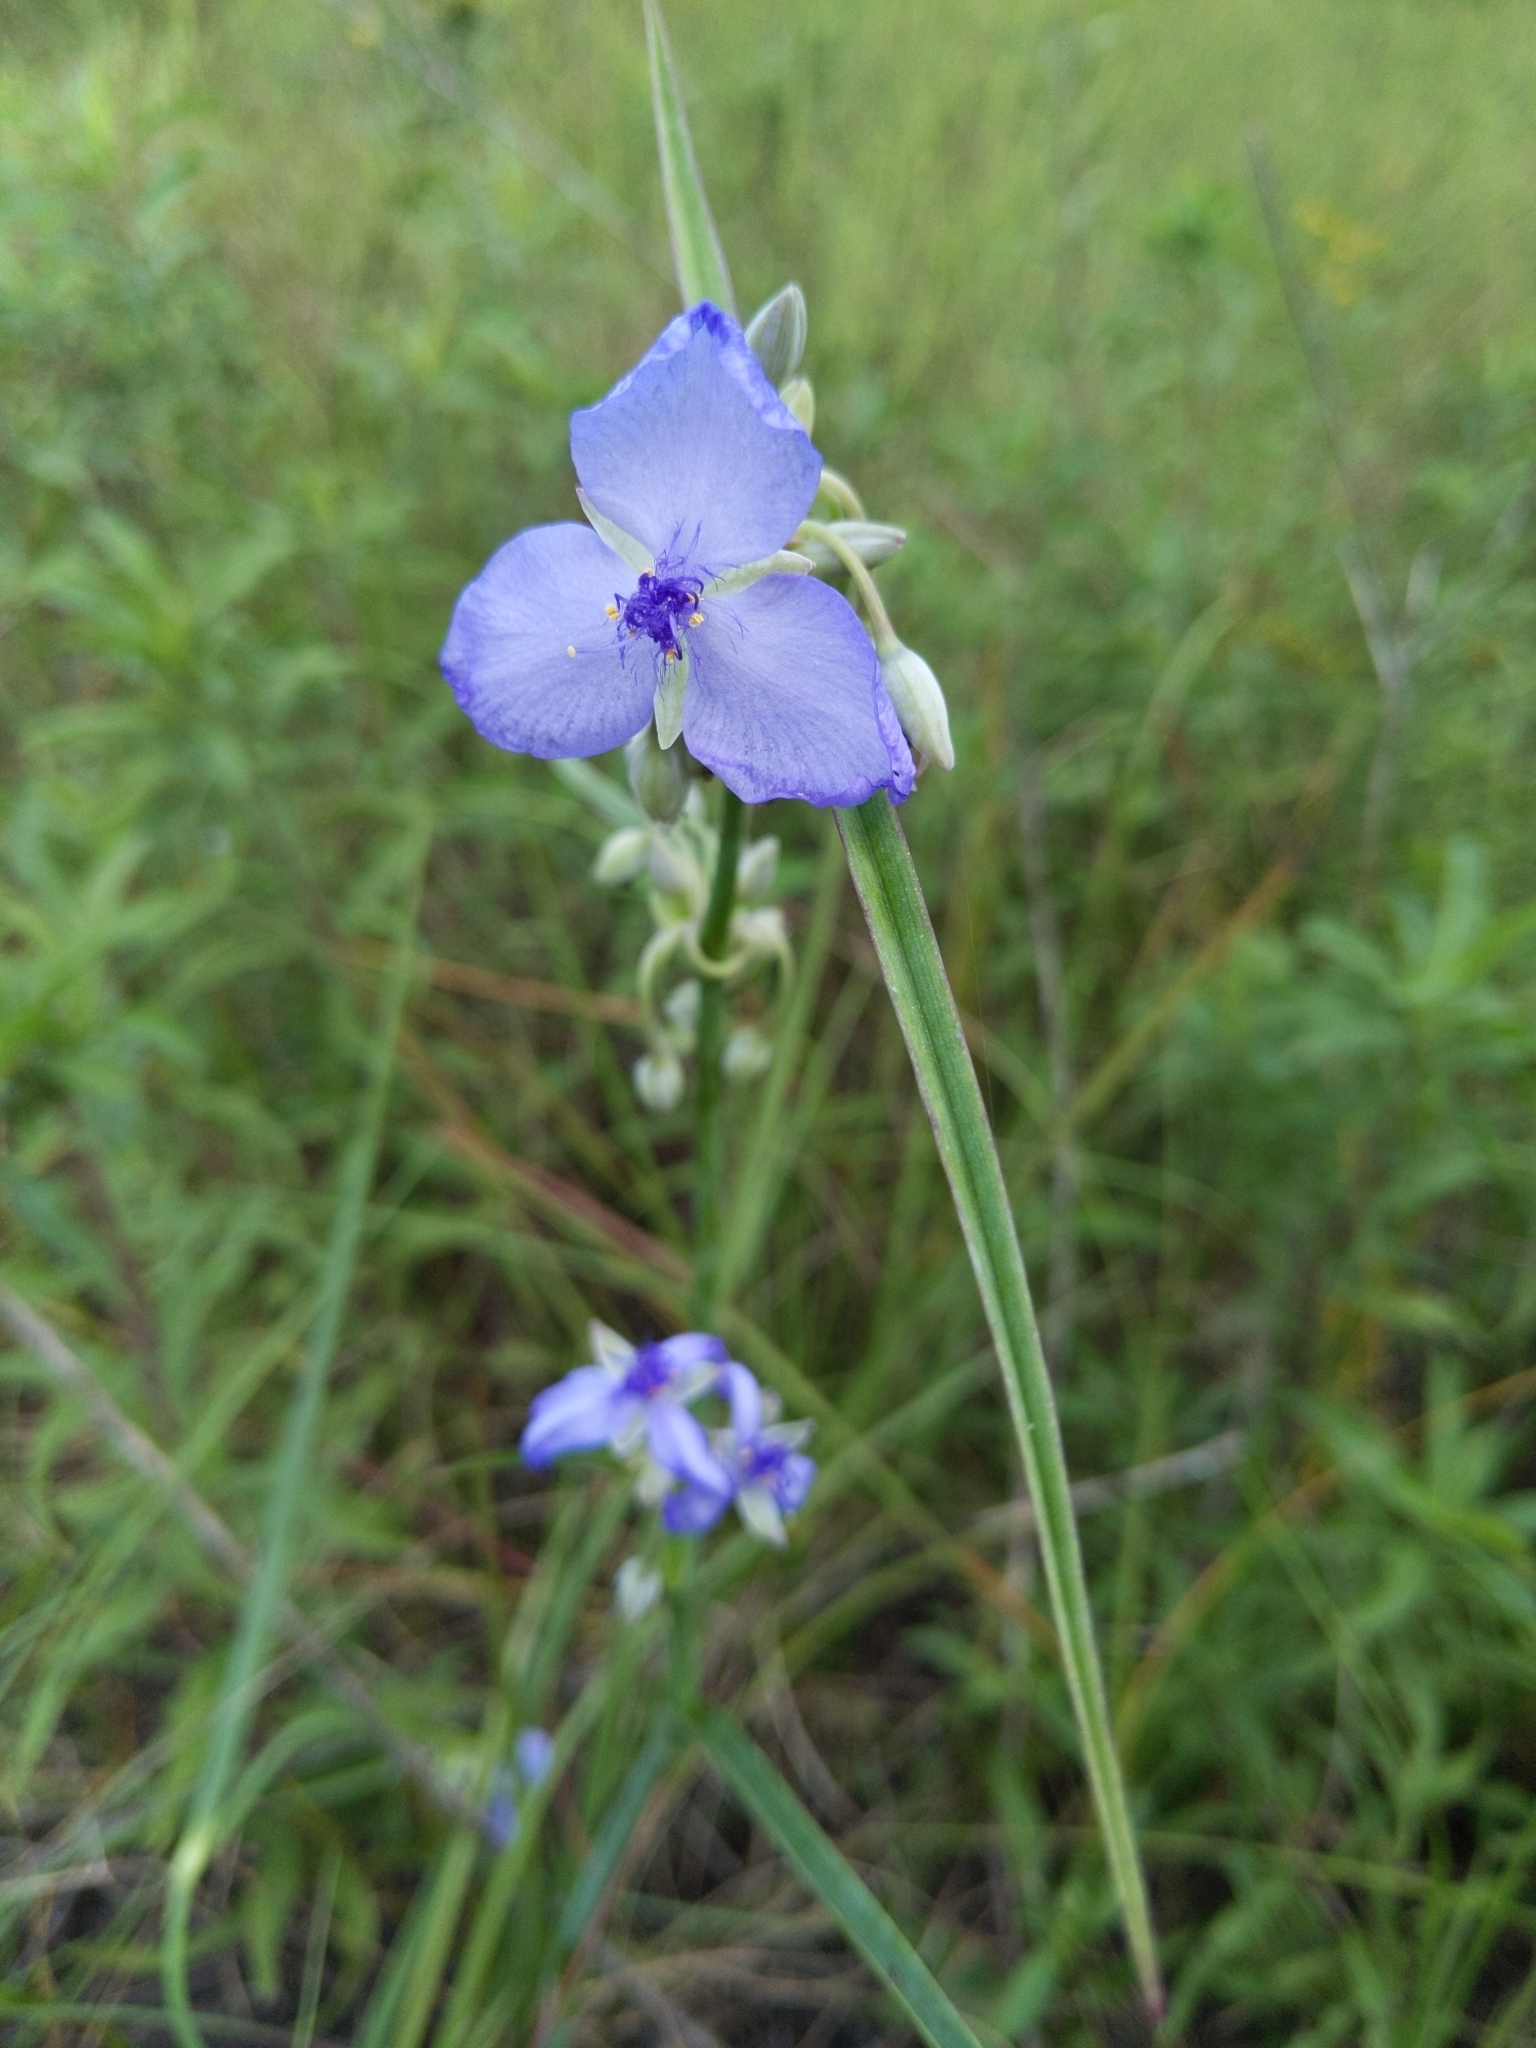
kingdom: Plantae
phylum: Tracheophyta
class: Liliopsida
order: Commelinales
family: Commelinaceae
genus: Tradescantia
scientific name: Tradescantia ohiensis
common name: Ohio spiderwort
